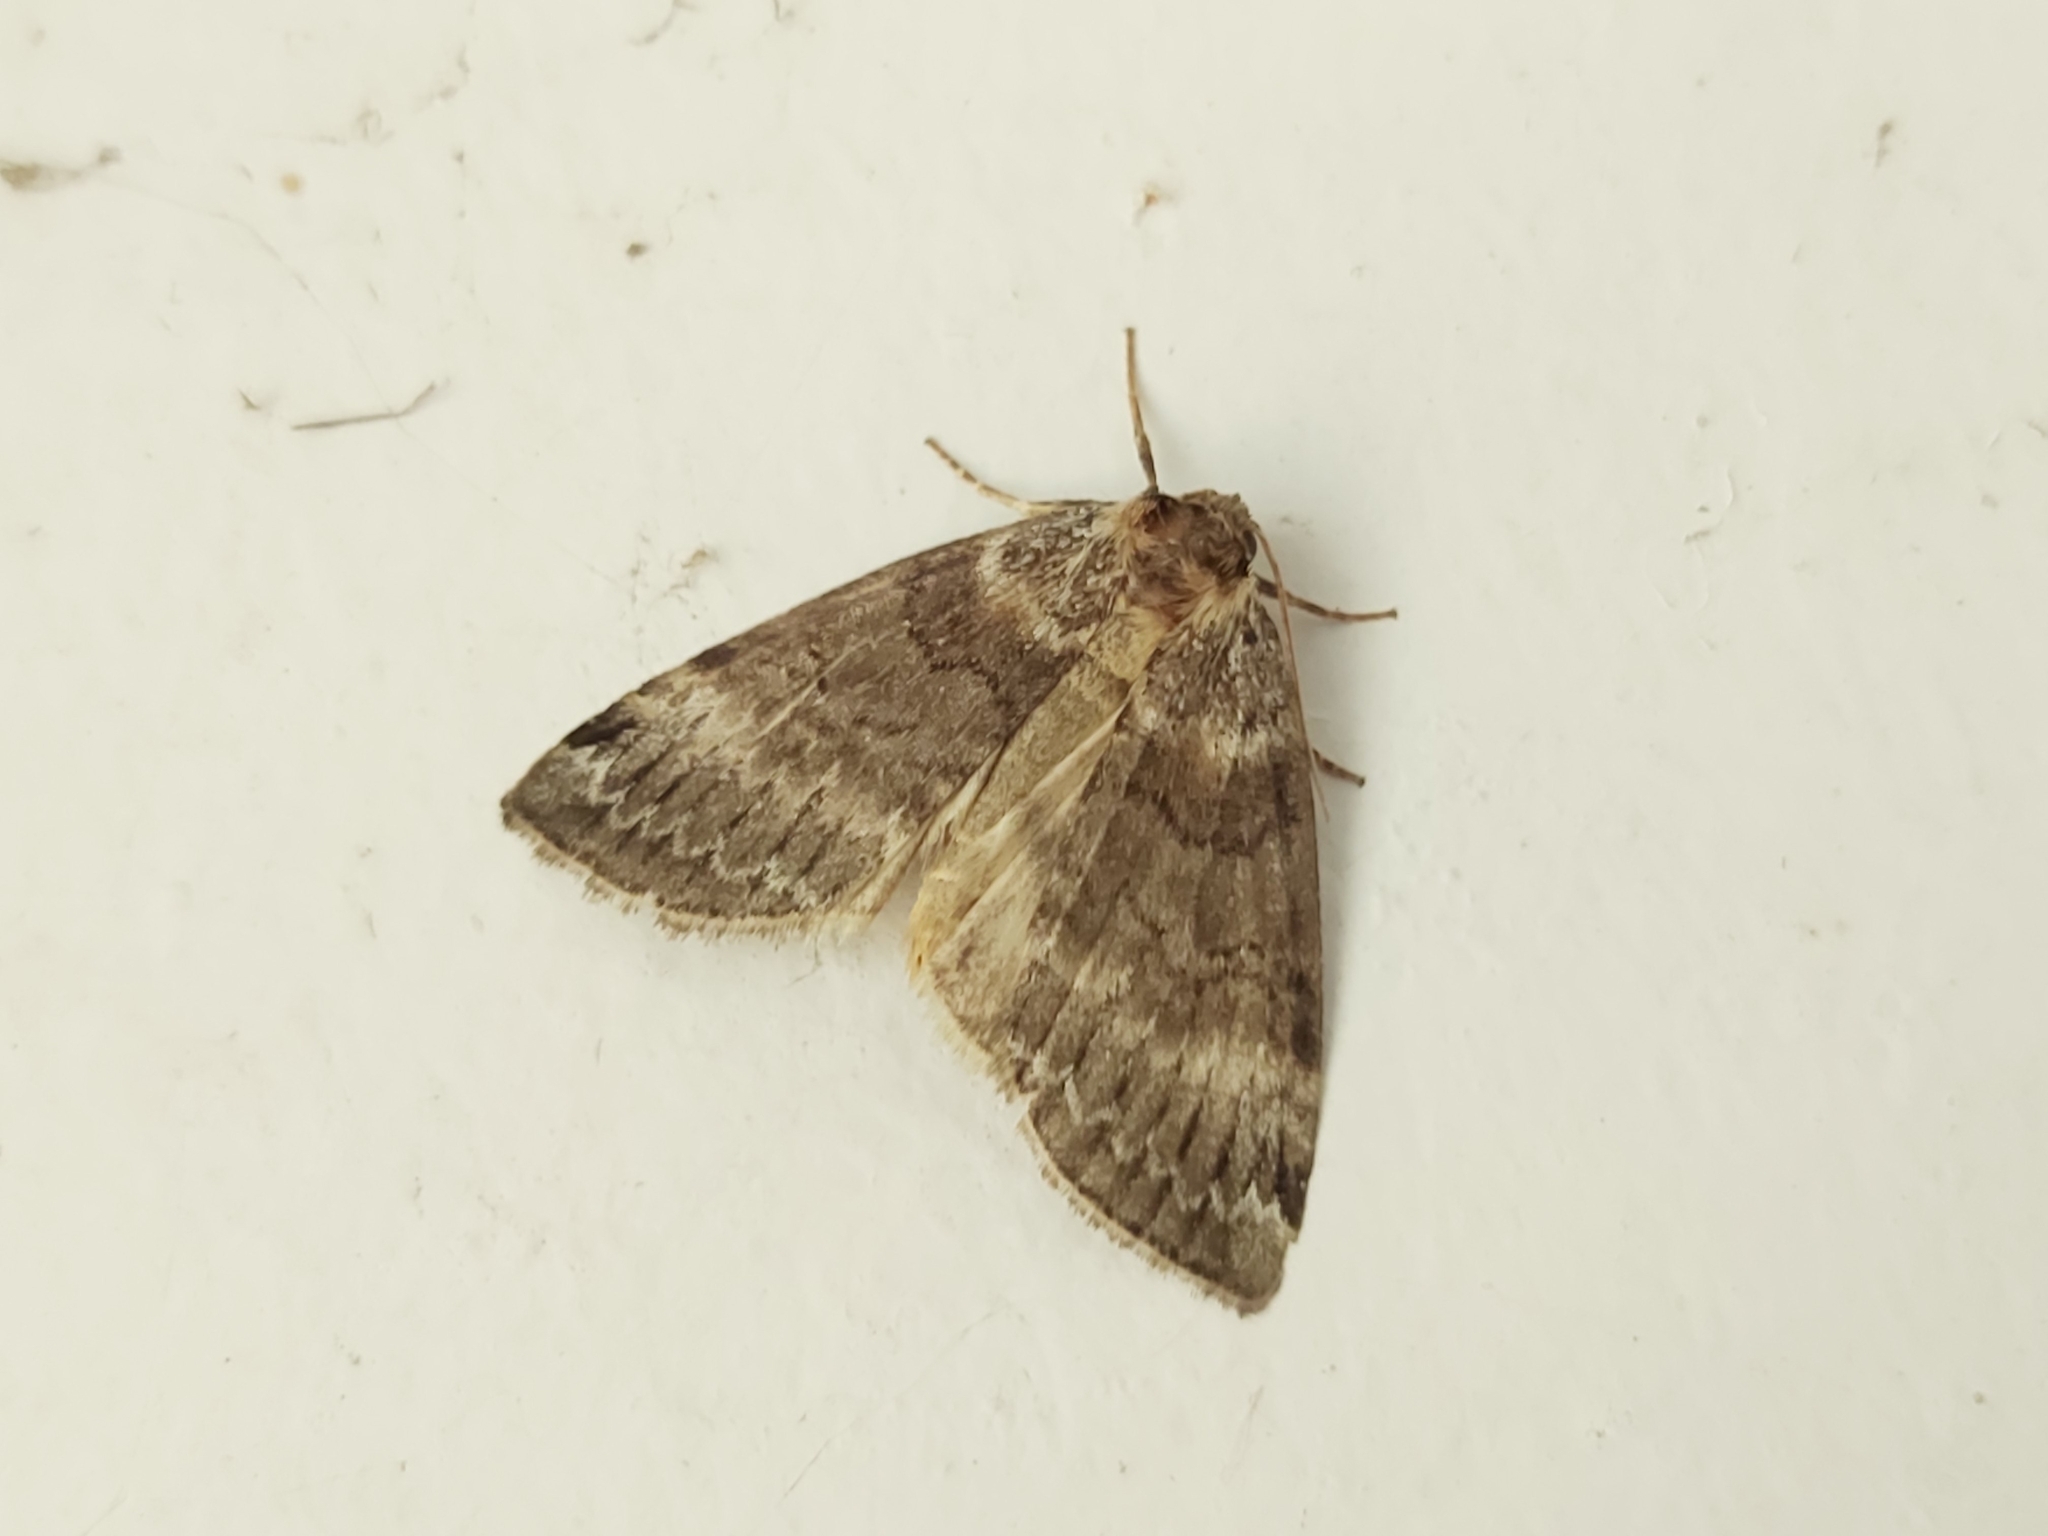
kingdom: Animalia
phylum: Arthropoda
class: Insecta
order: Lepidoptera
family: Drepanidae
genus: Tetheella
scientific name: Tetheella fluctuosa
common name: Satin lutestring
